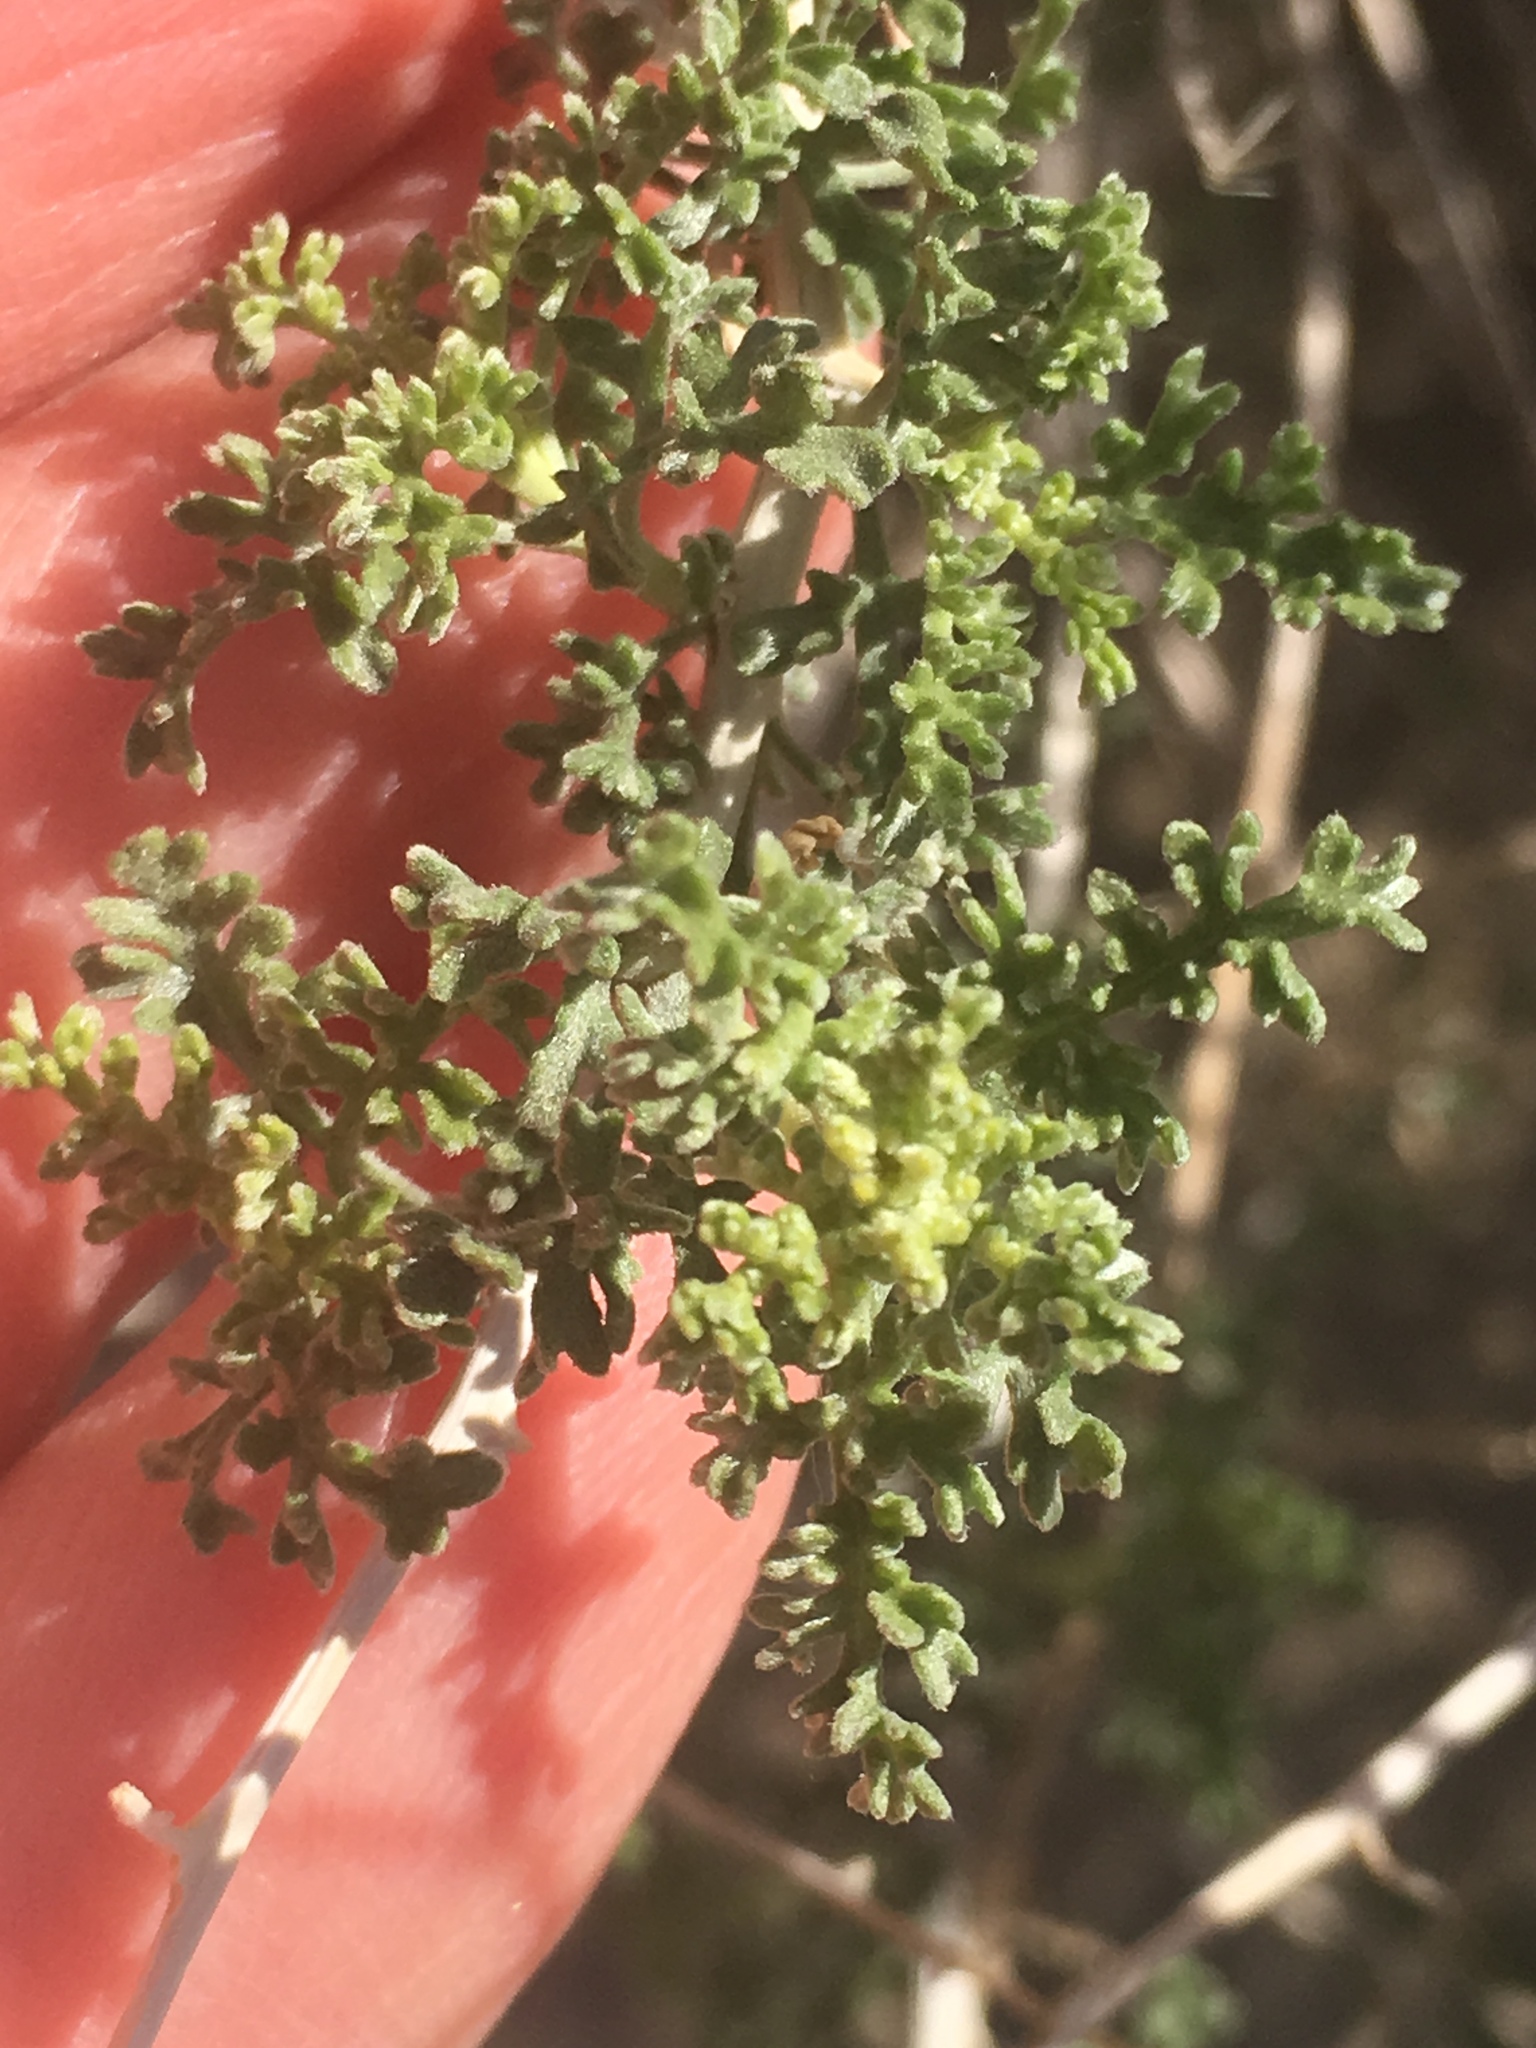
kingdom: Plantae
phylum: Tracheophyta
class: Magnoliopsida
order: Asterales
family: Asteraceae
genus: Ambrosia
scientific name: Ambrosia dumosa
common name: Bur-sage
